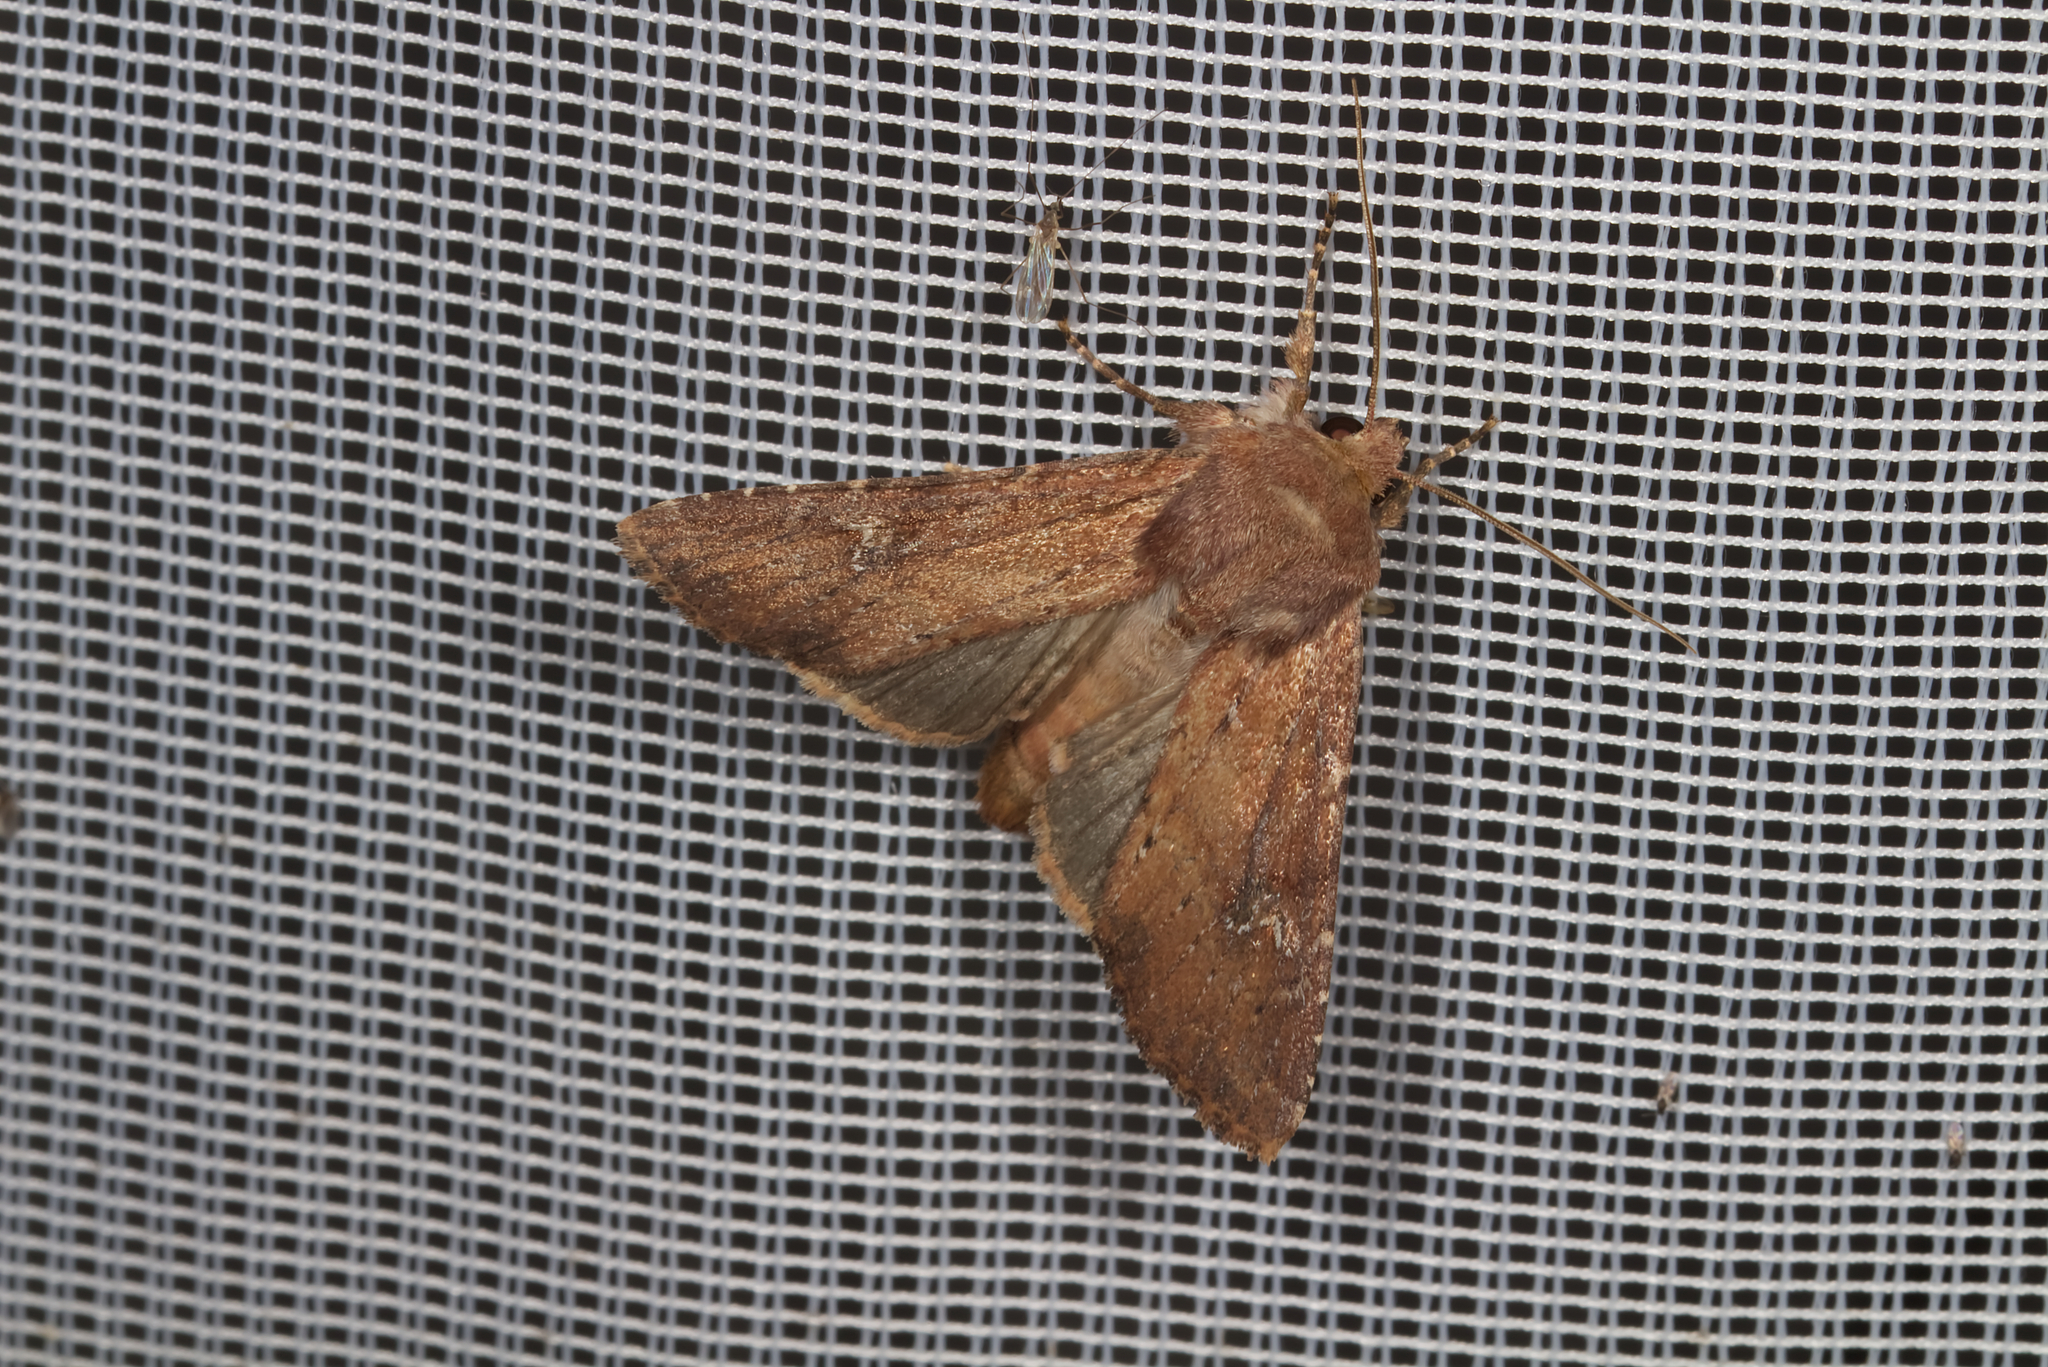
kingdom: Animalia
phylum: Arthropoda
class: Insecta
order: Lepidoptera
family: Noctuidae
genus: Apamea
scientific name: Apamea lateritia
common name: Scarce brindle
